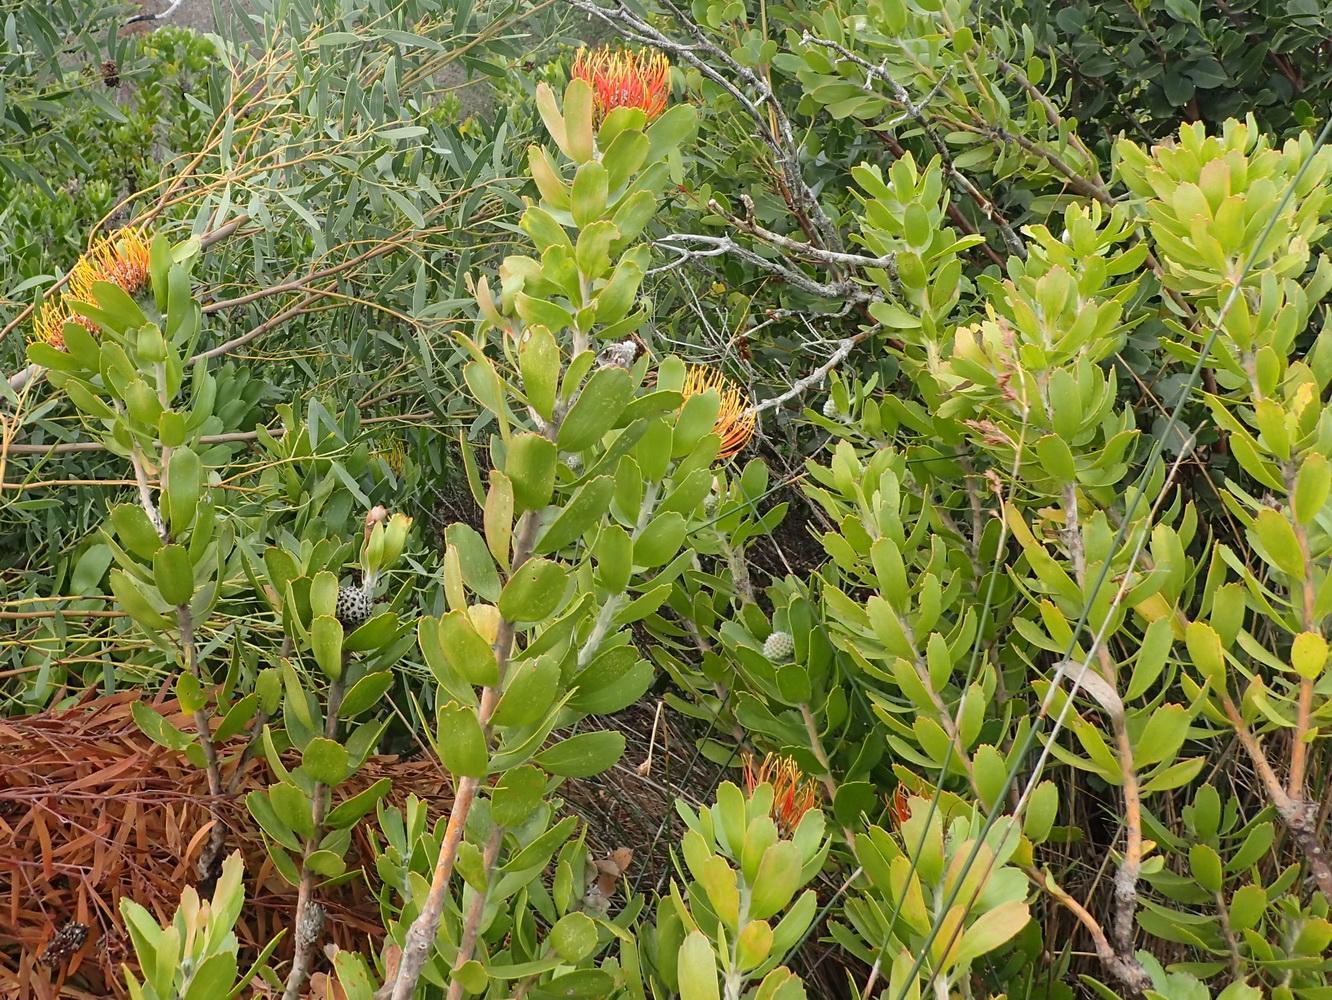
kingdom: Plantae
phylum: Tracheophyta
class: Magnoliopsida
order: Proteales
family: Proteaceae
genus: Leucospermum
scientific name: Leucospermum praecox
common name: Mossel bay pincushion
